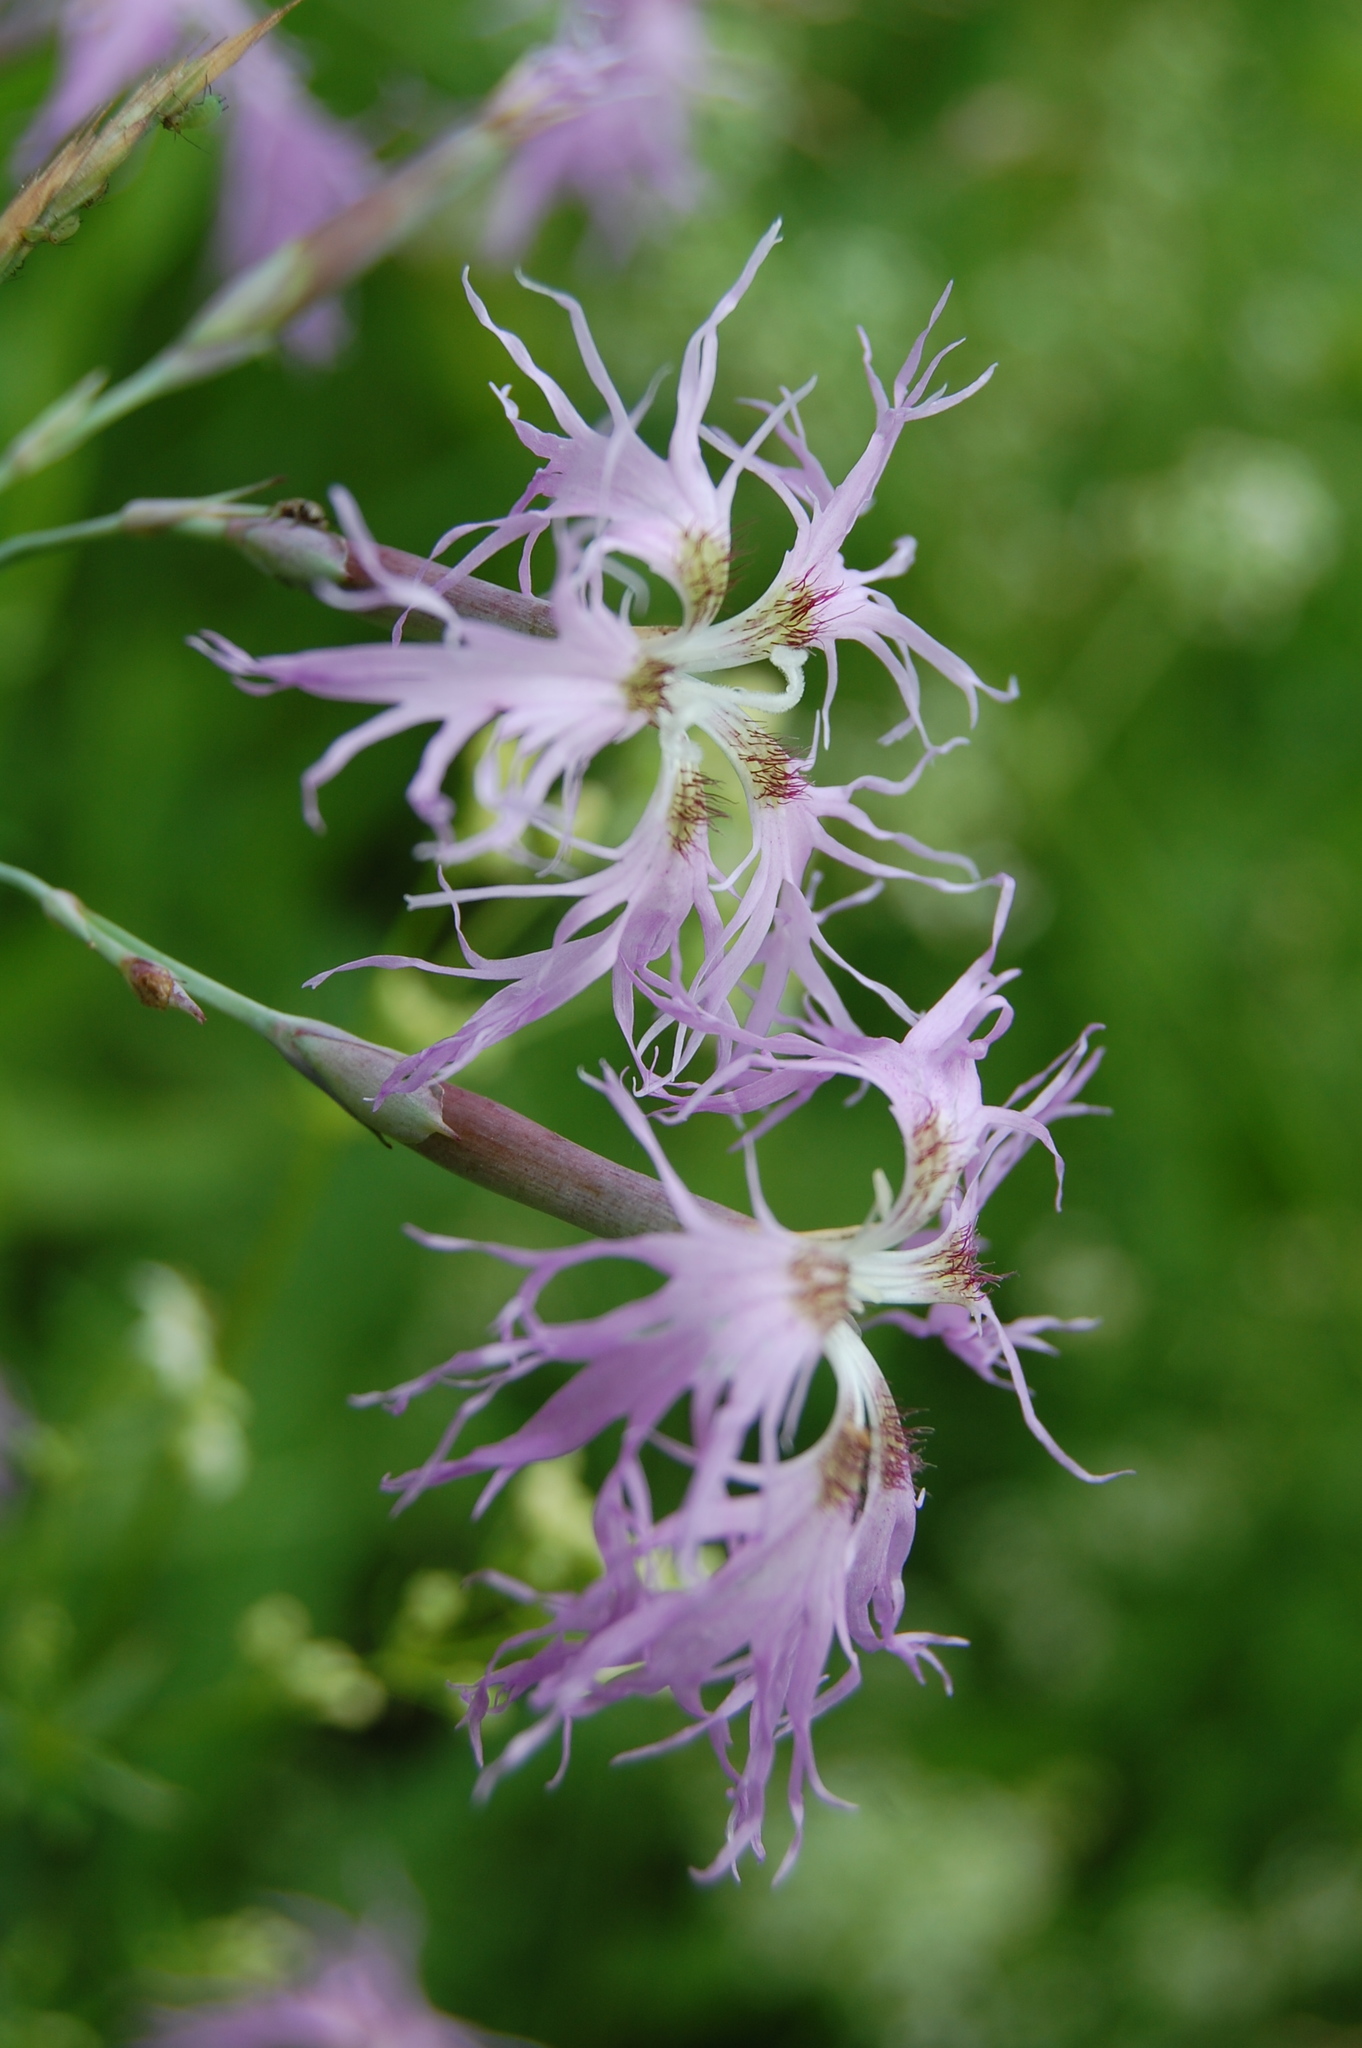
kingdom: Plantae
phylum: Tracheophyta
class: Magnoliopsida
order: Caryophyllales
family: Caryophyllaceae
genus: Dianthus
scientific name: Dianthus superbus
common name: Fringed pink
